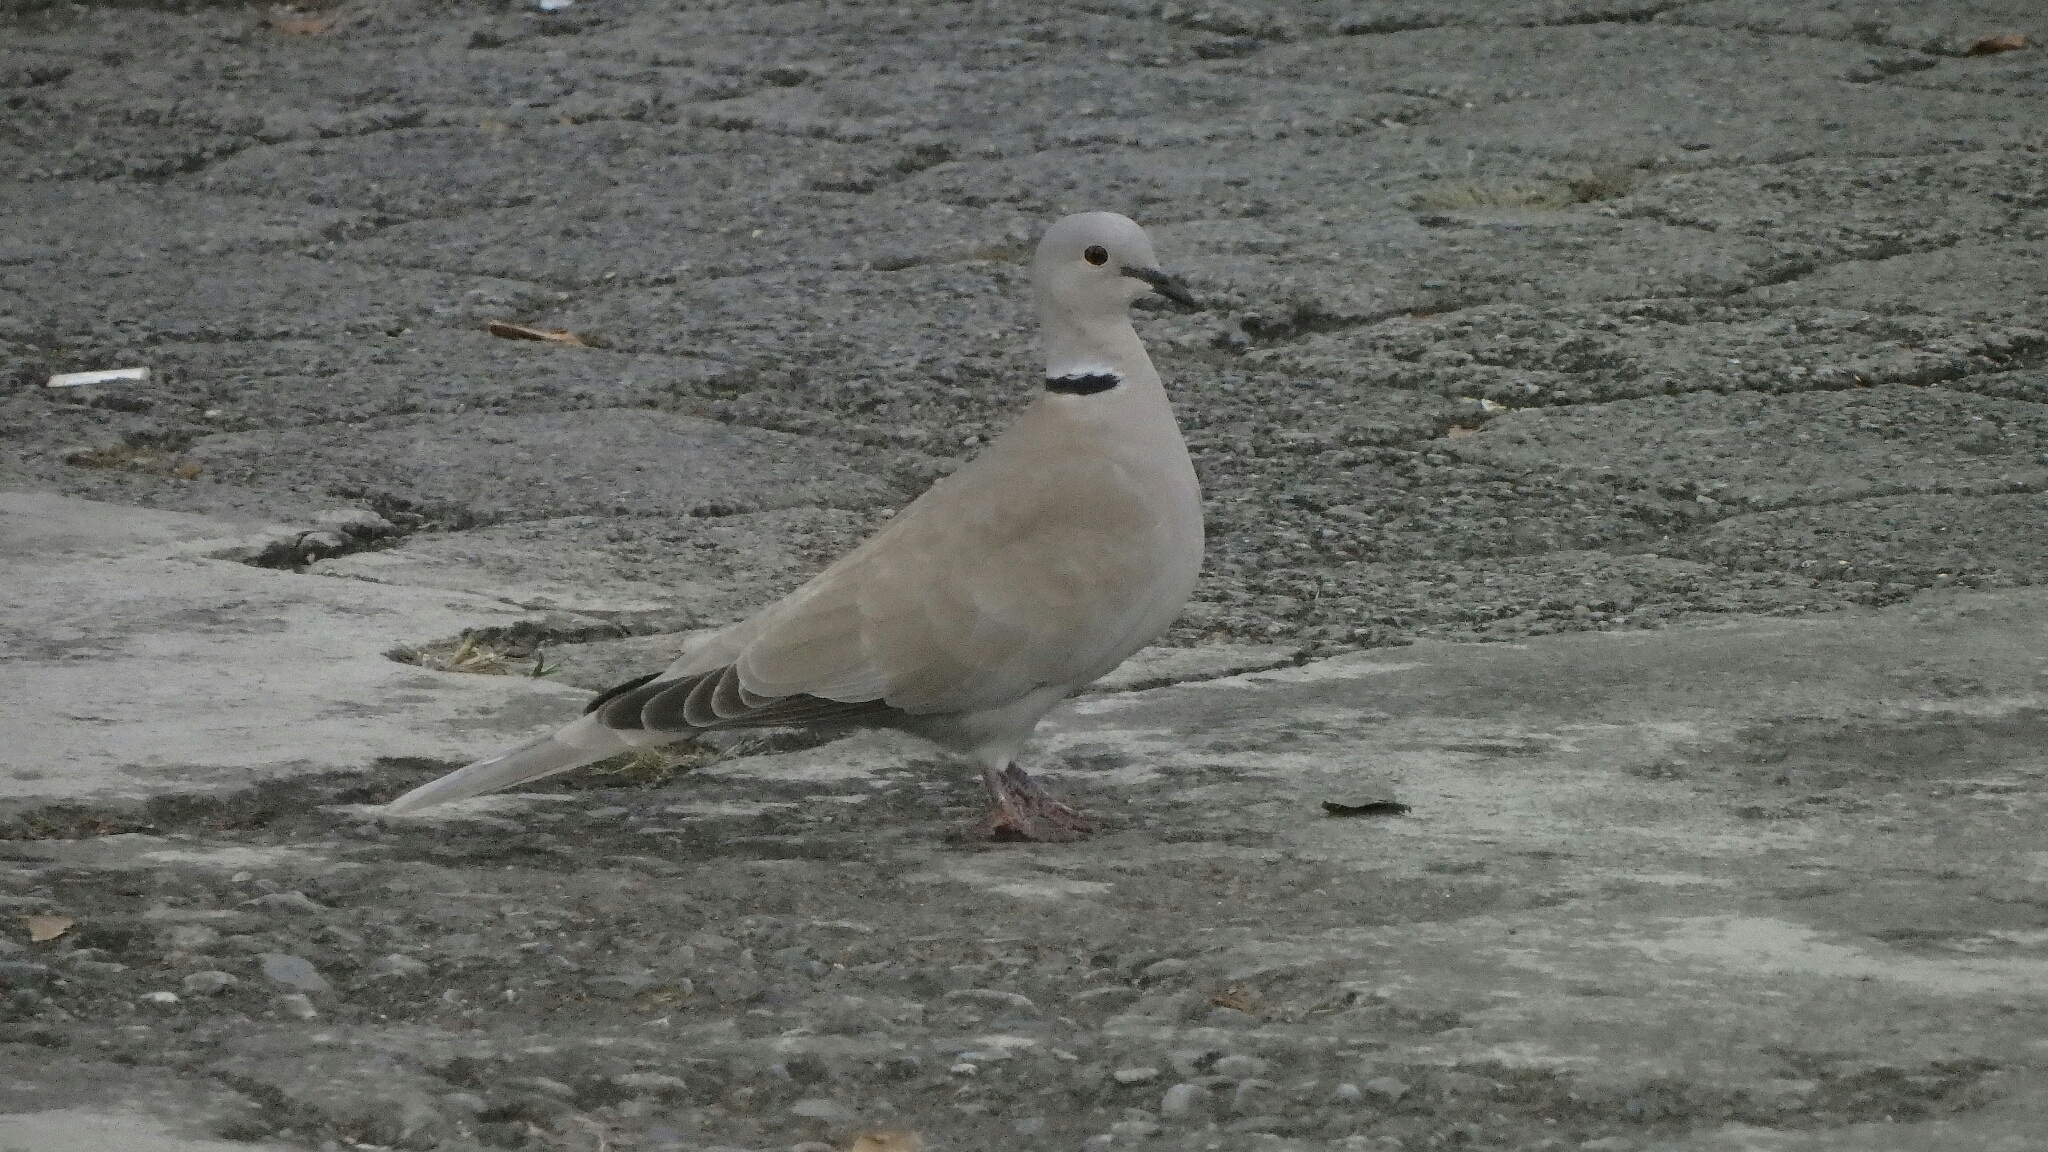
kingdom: Animalia
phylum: Chordata
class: Aves
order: Columbiformes
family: Columbidae
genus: Streptopelia
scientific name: Streptopelia decaocto
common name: Eurasian collared dove
